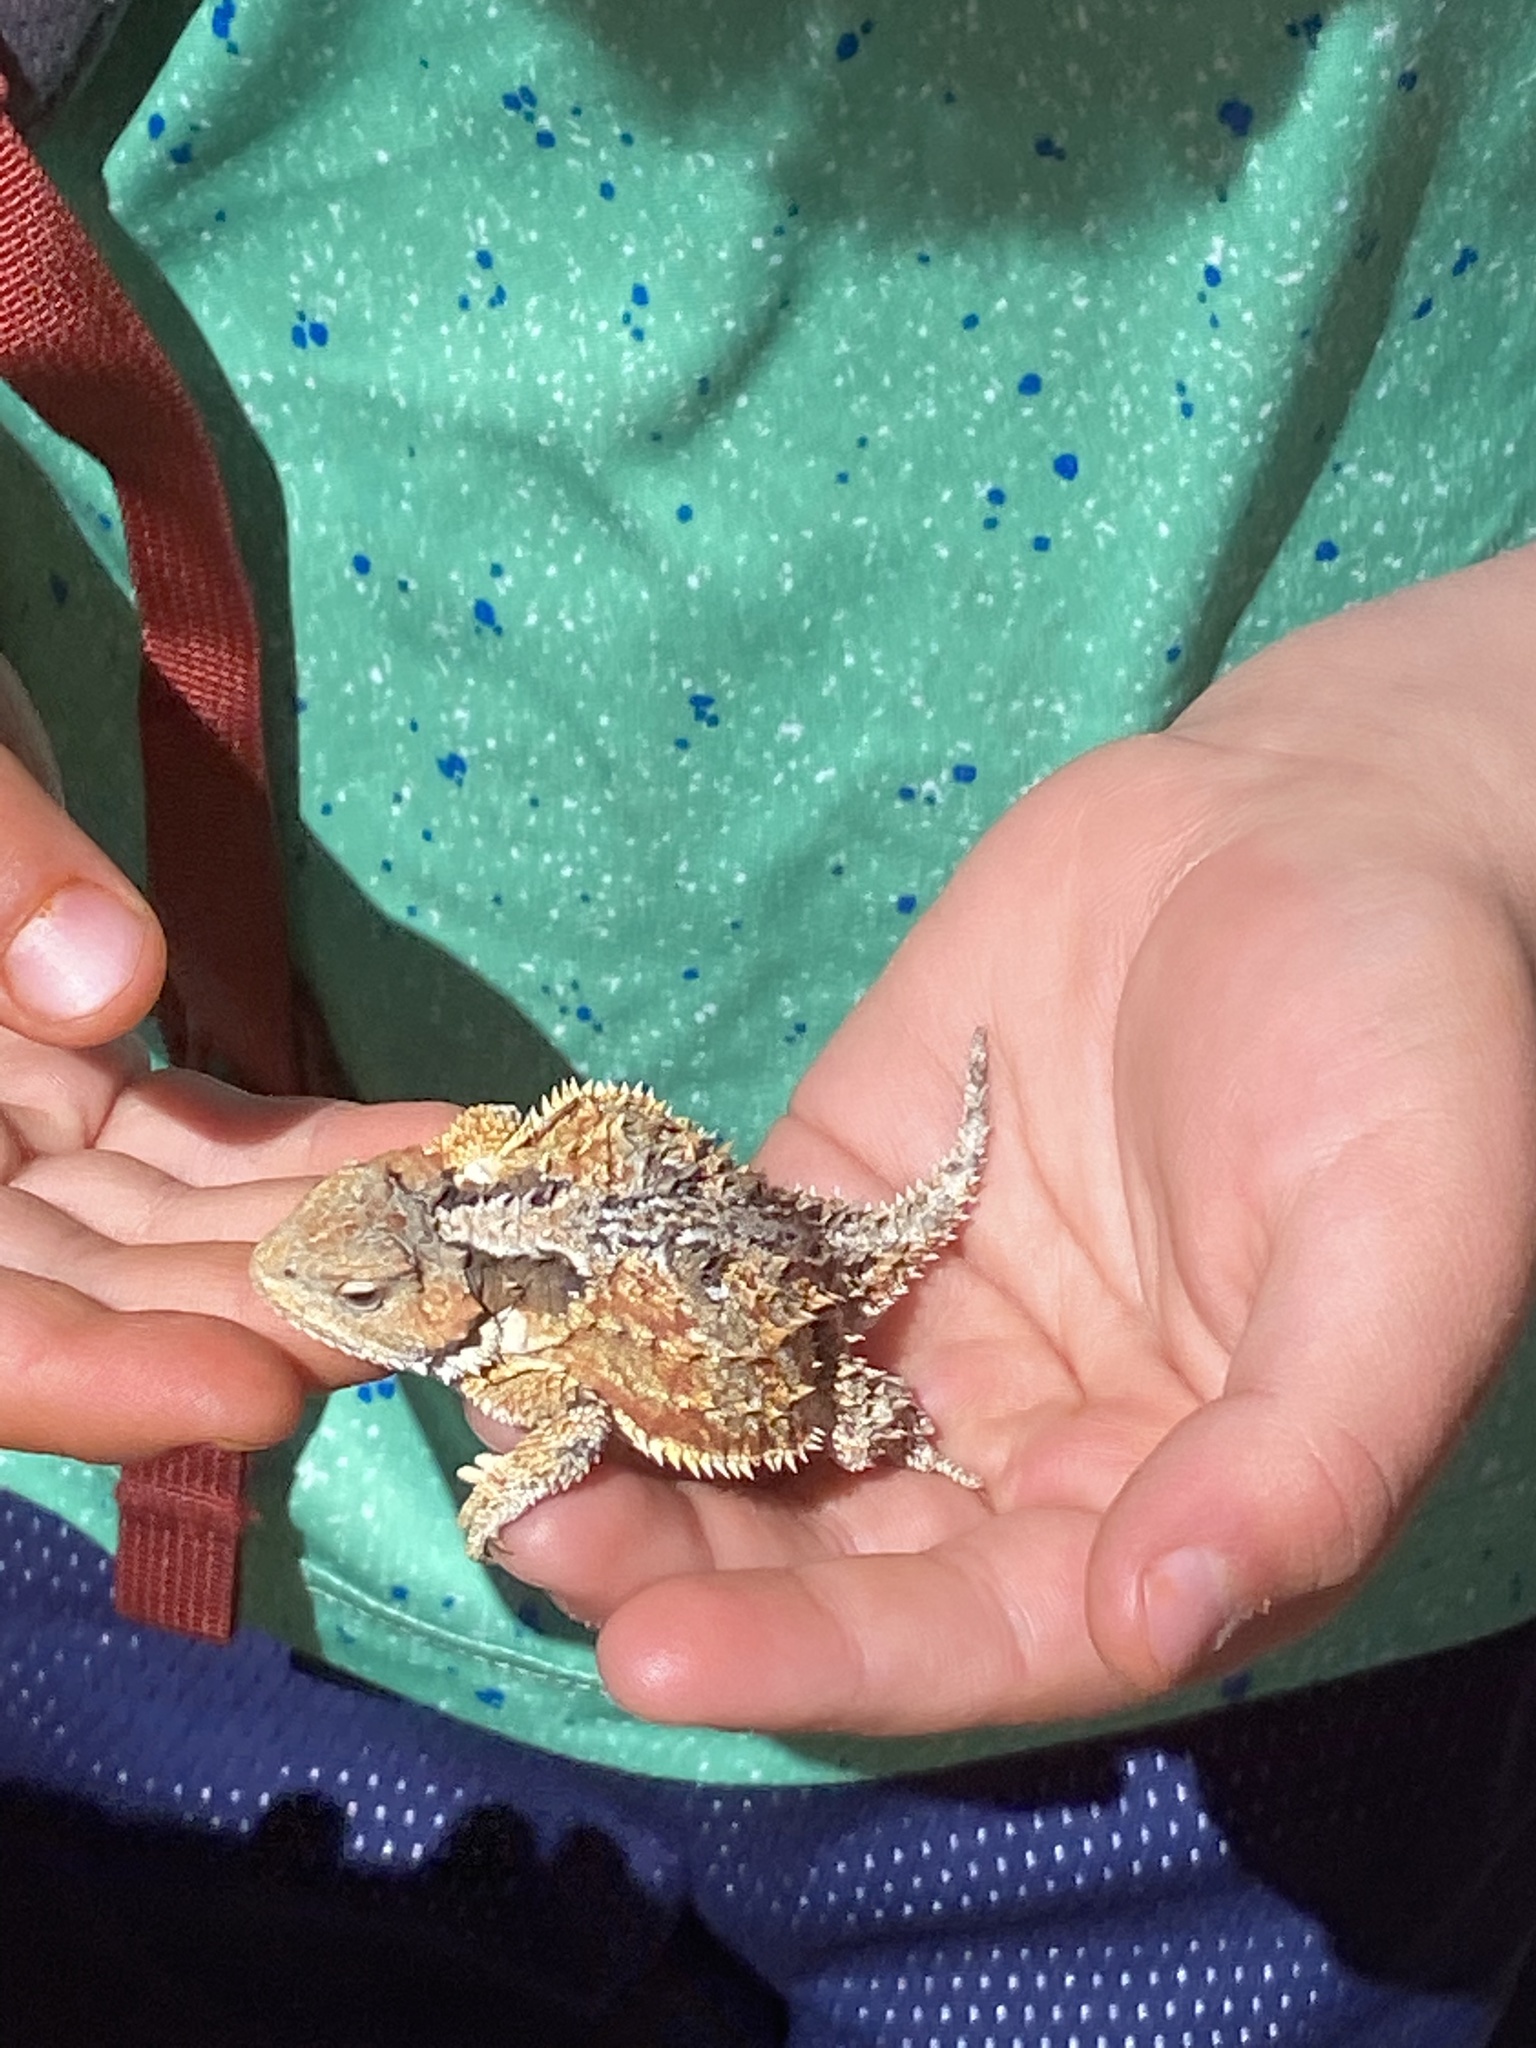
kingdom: Animalia
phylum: Chordata
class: Squamata
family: Phrynosomatidae
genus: Phrynosoma
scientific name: Phrynosoma hernandesi
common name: Greater short-horned lizard
